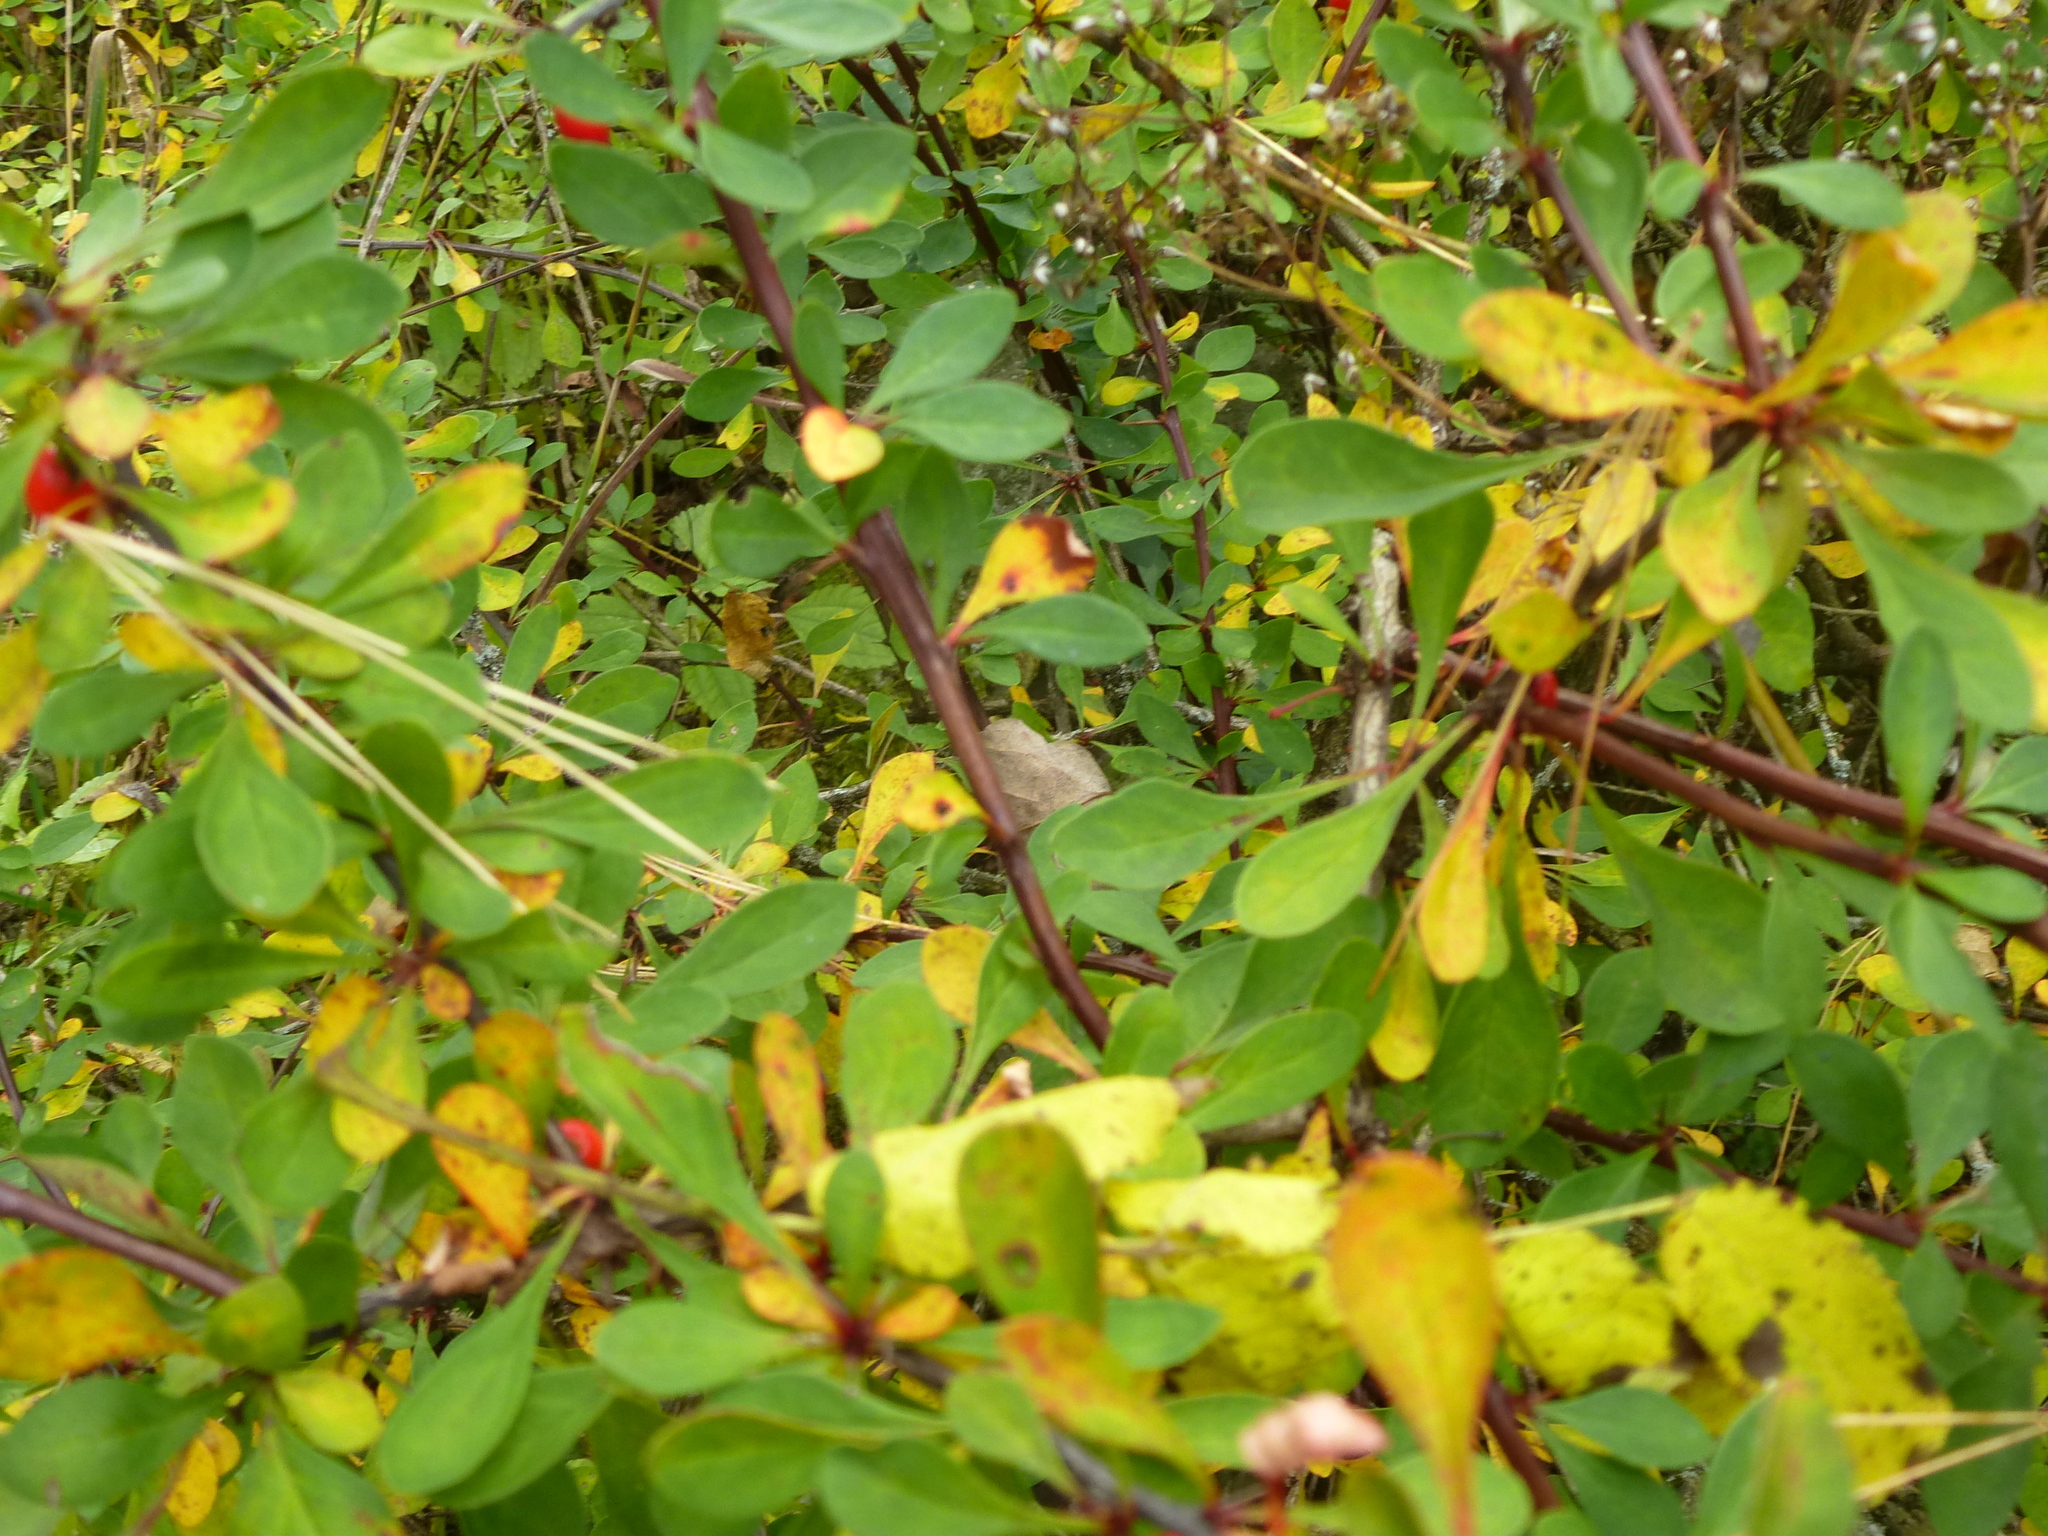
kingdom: Plantae
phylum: Tracheophyta
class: Magnoliopsida
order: Ranunculales
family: Berberidaceae
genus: Berberis
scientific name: Berberis thunbergii
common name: Japanese barberry
